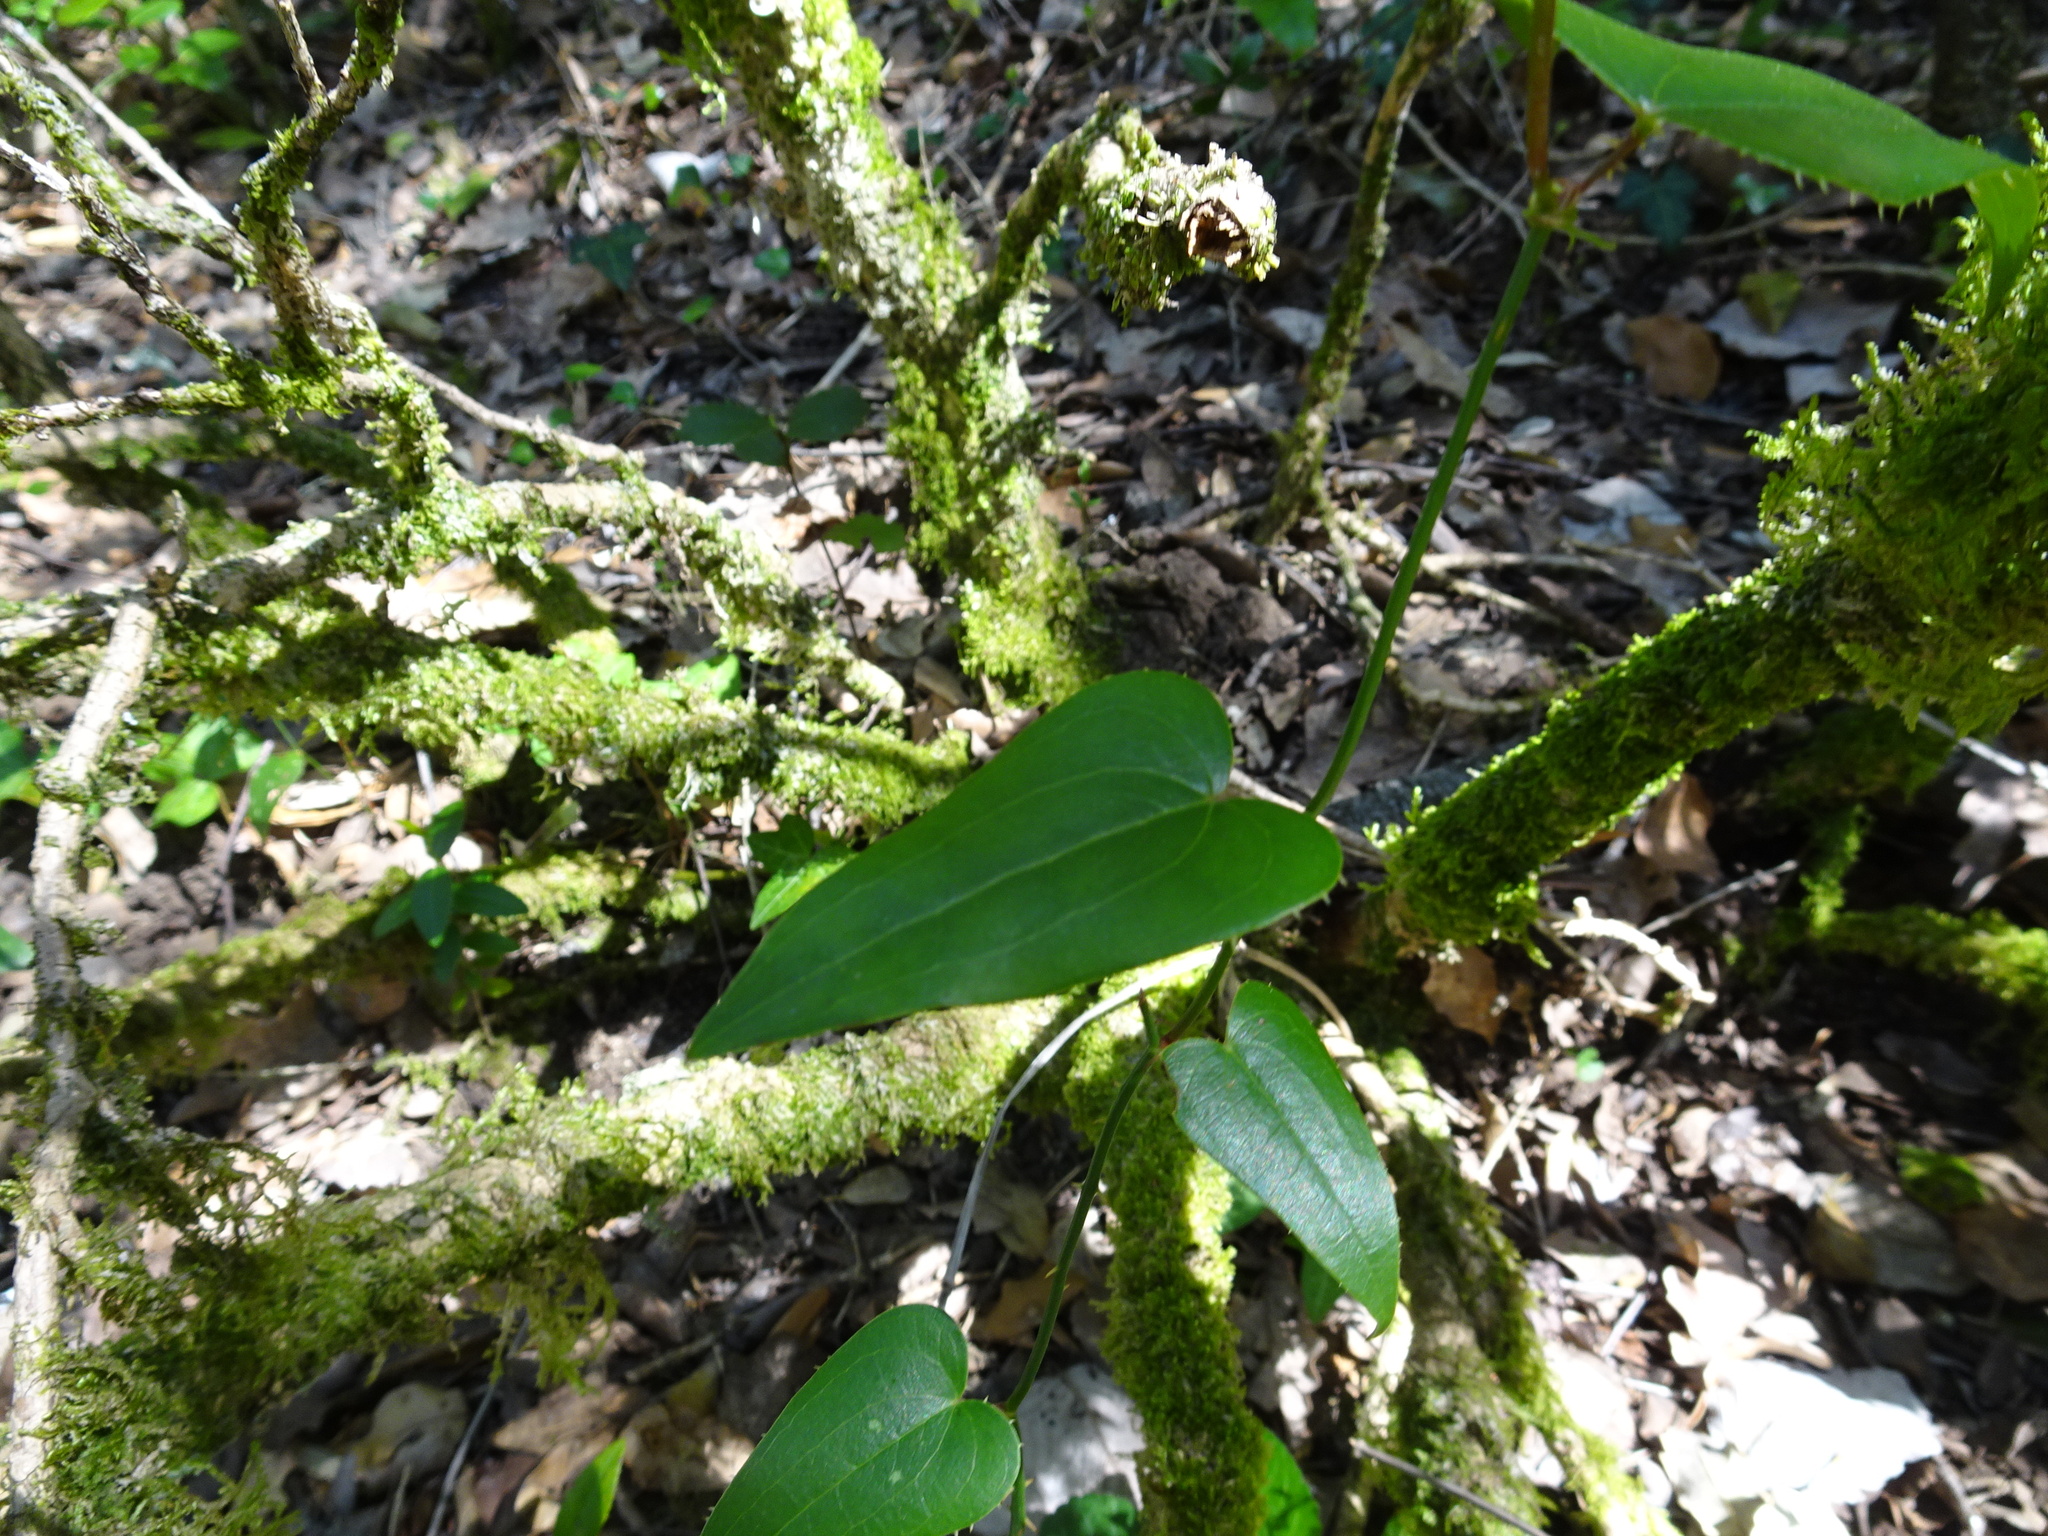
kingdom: Plantae
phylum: Tracheophyta
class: Liliopsida
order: Liliales
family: Smilacaceae
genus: Smilax
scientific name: Smilax aspera
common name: Common smilax
